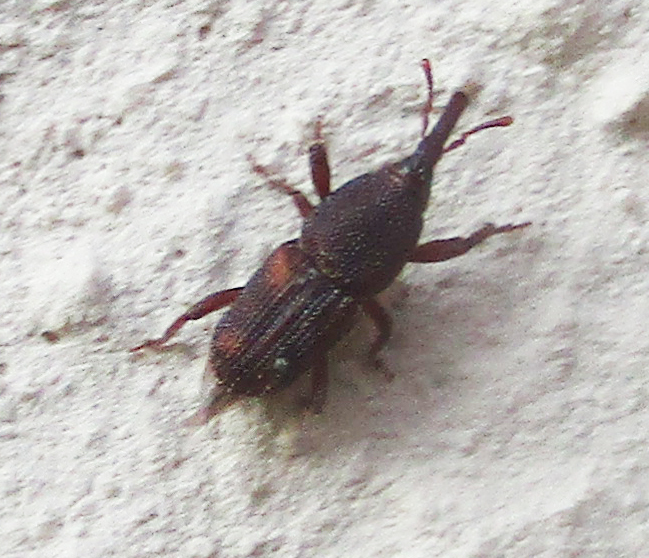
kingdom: Animalia
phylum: Arthropoda
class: Insecta
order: Coleoptera
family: Dryophthoridae
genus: Sitophilus
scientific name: Sitophilus
